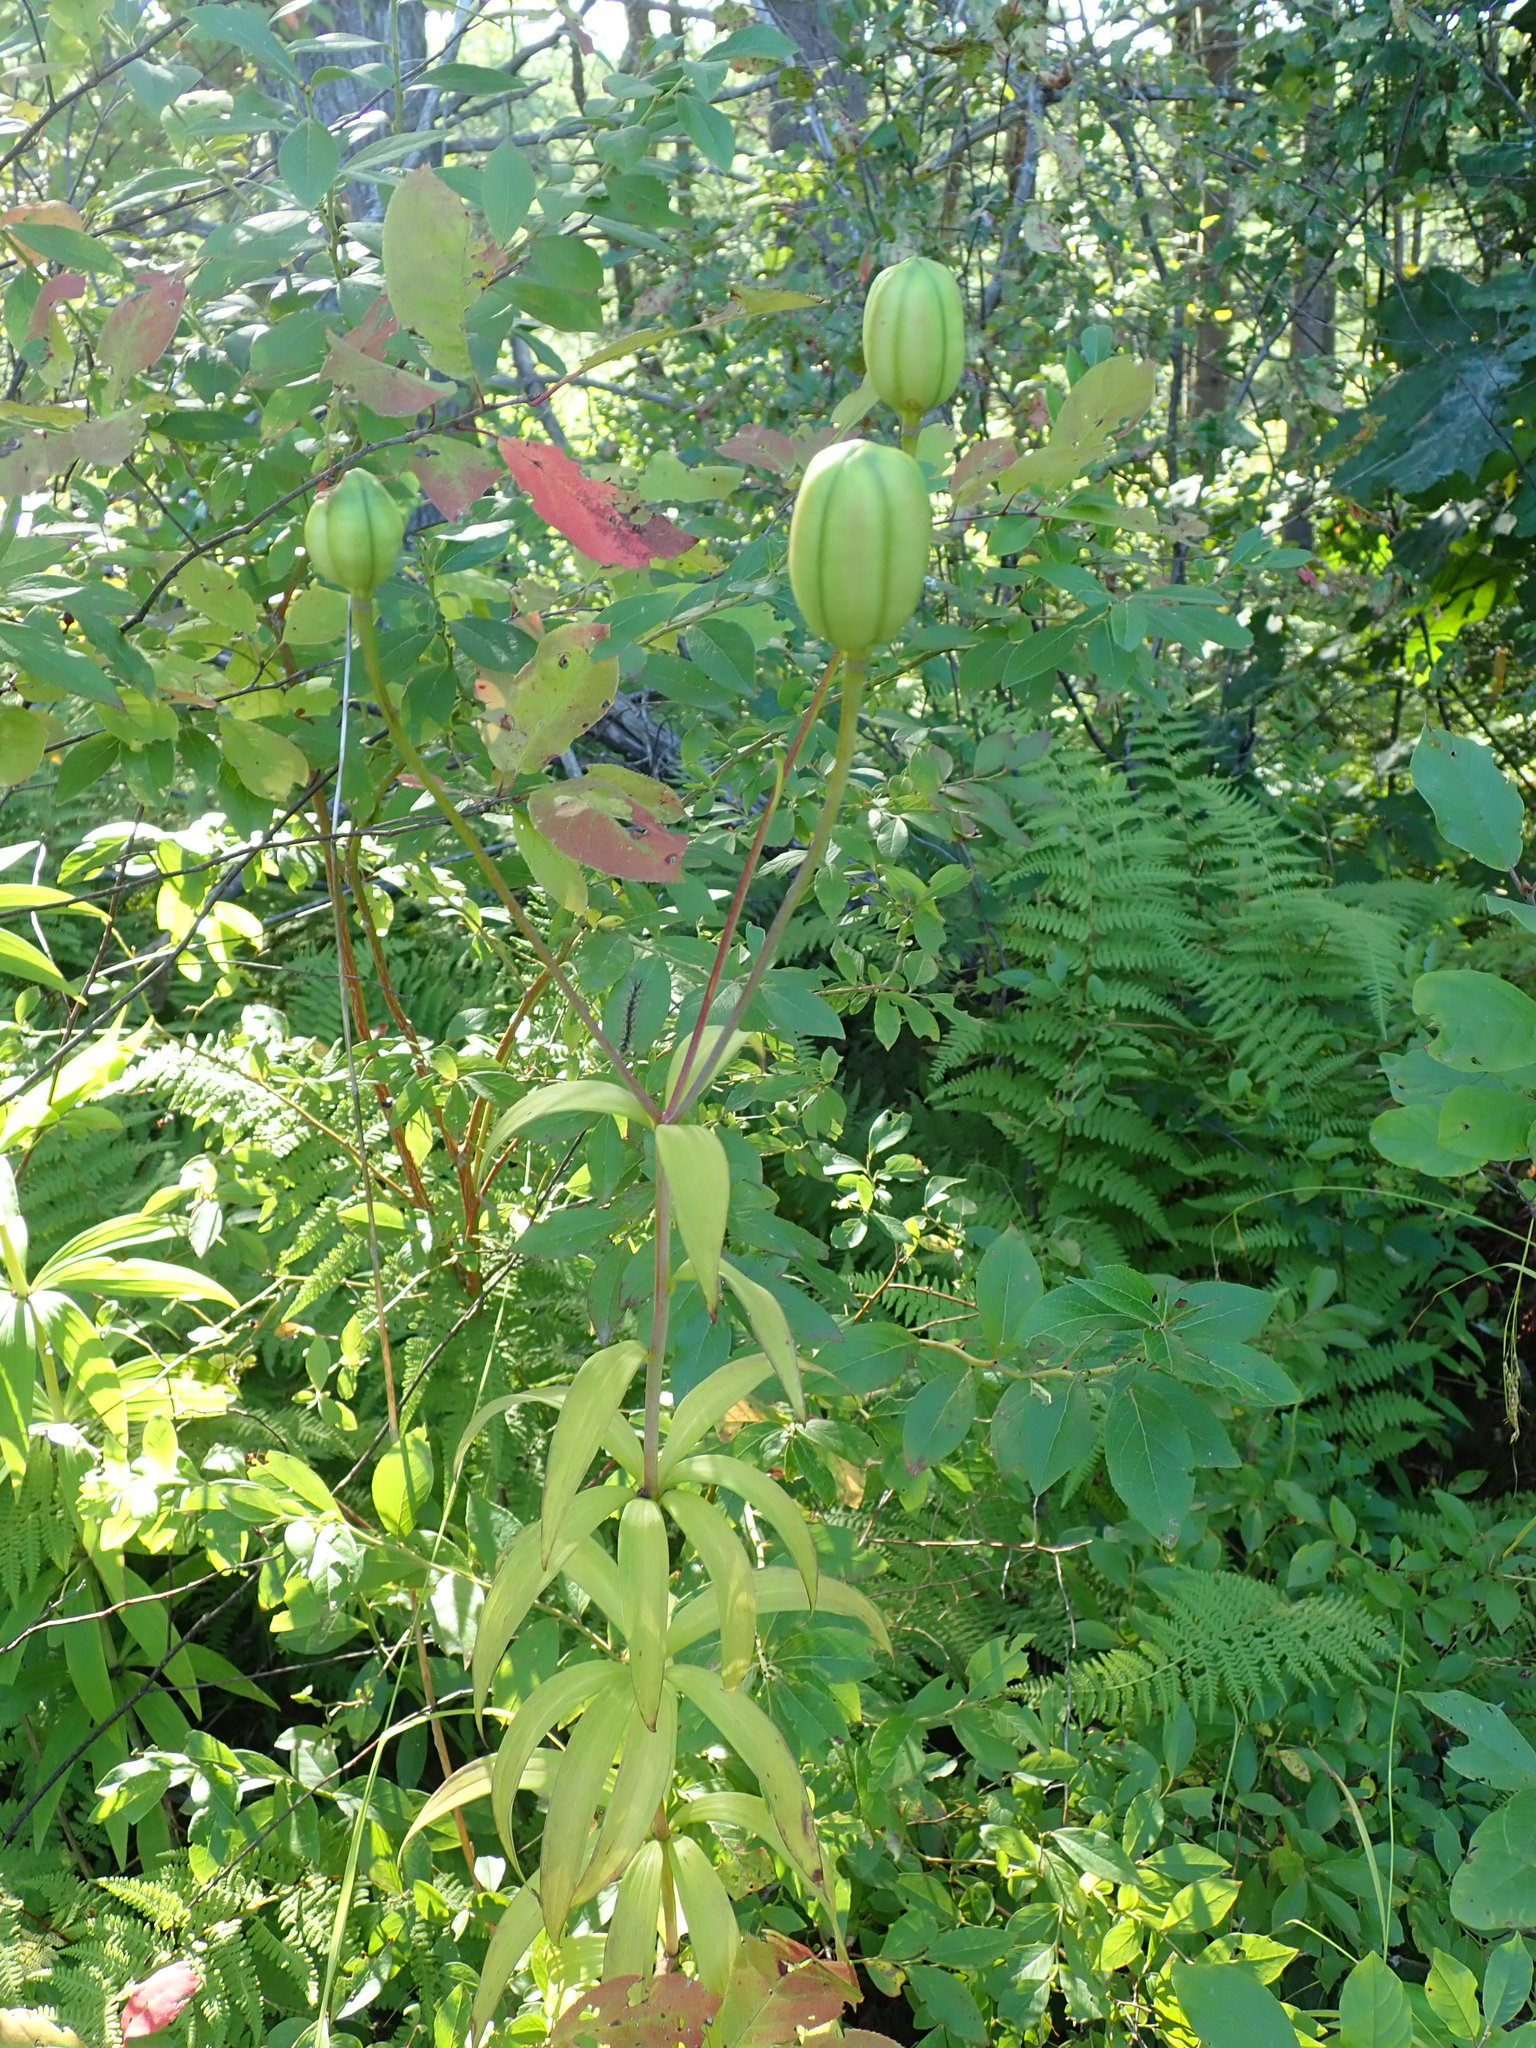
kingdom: Plantae
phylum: Tracheophyta
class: Liliopsida
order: Liliales
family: Liliaceae
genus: Lilium
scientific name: Lilium canadense
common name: Canada lily
